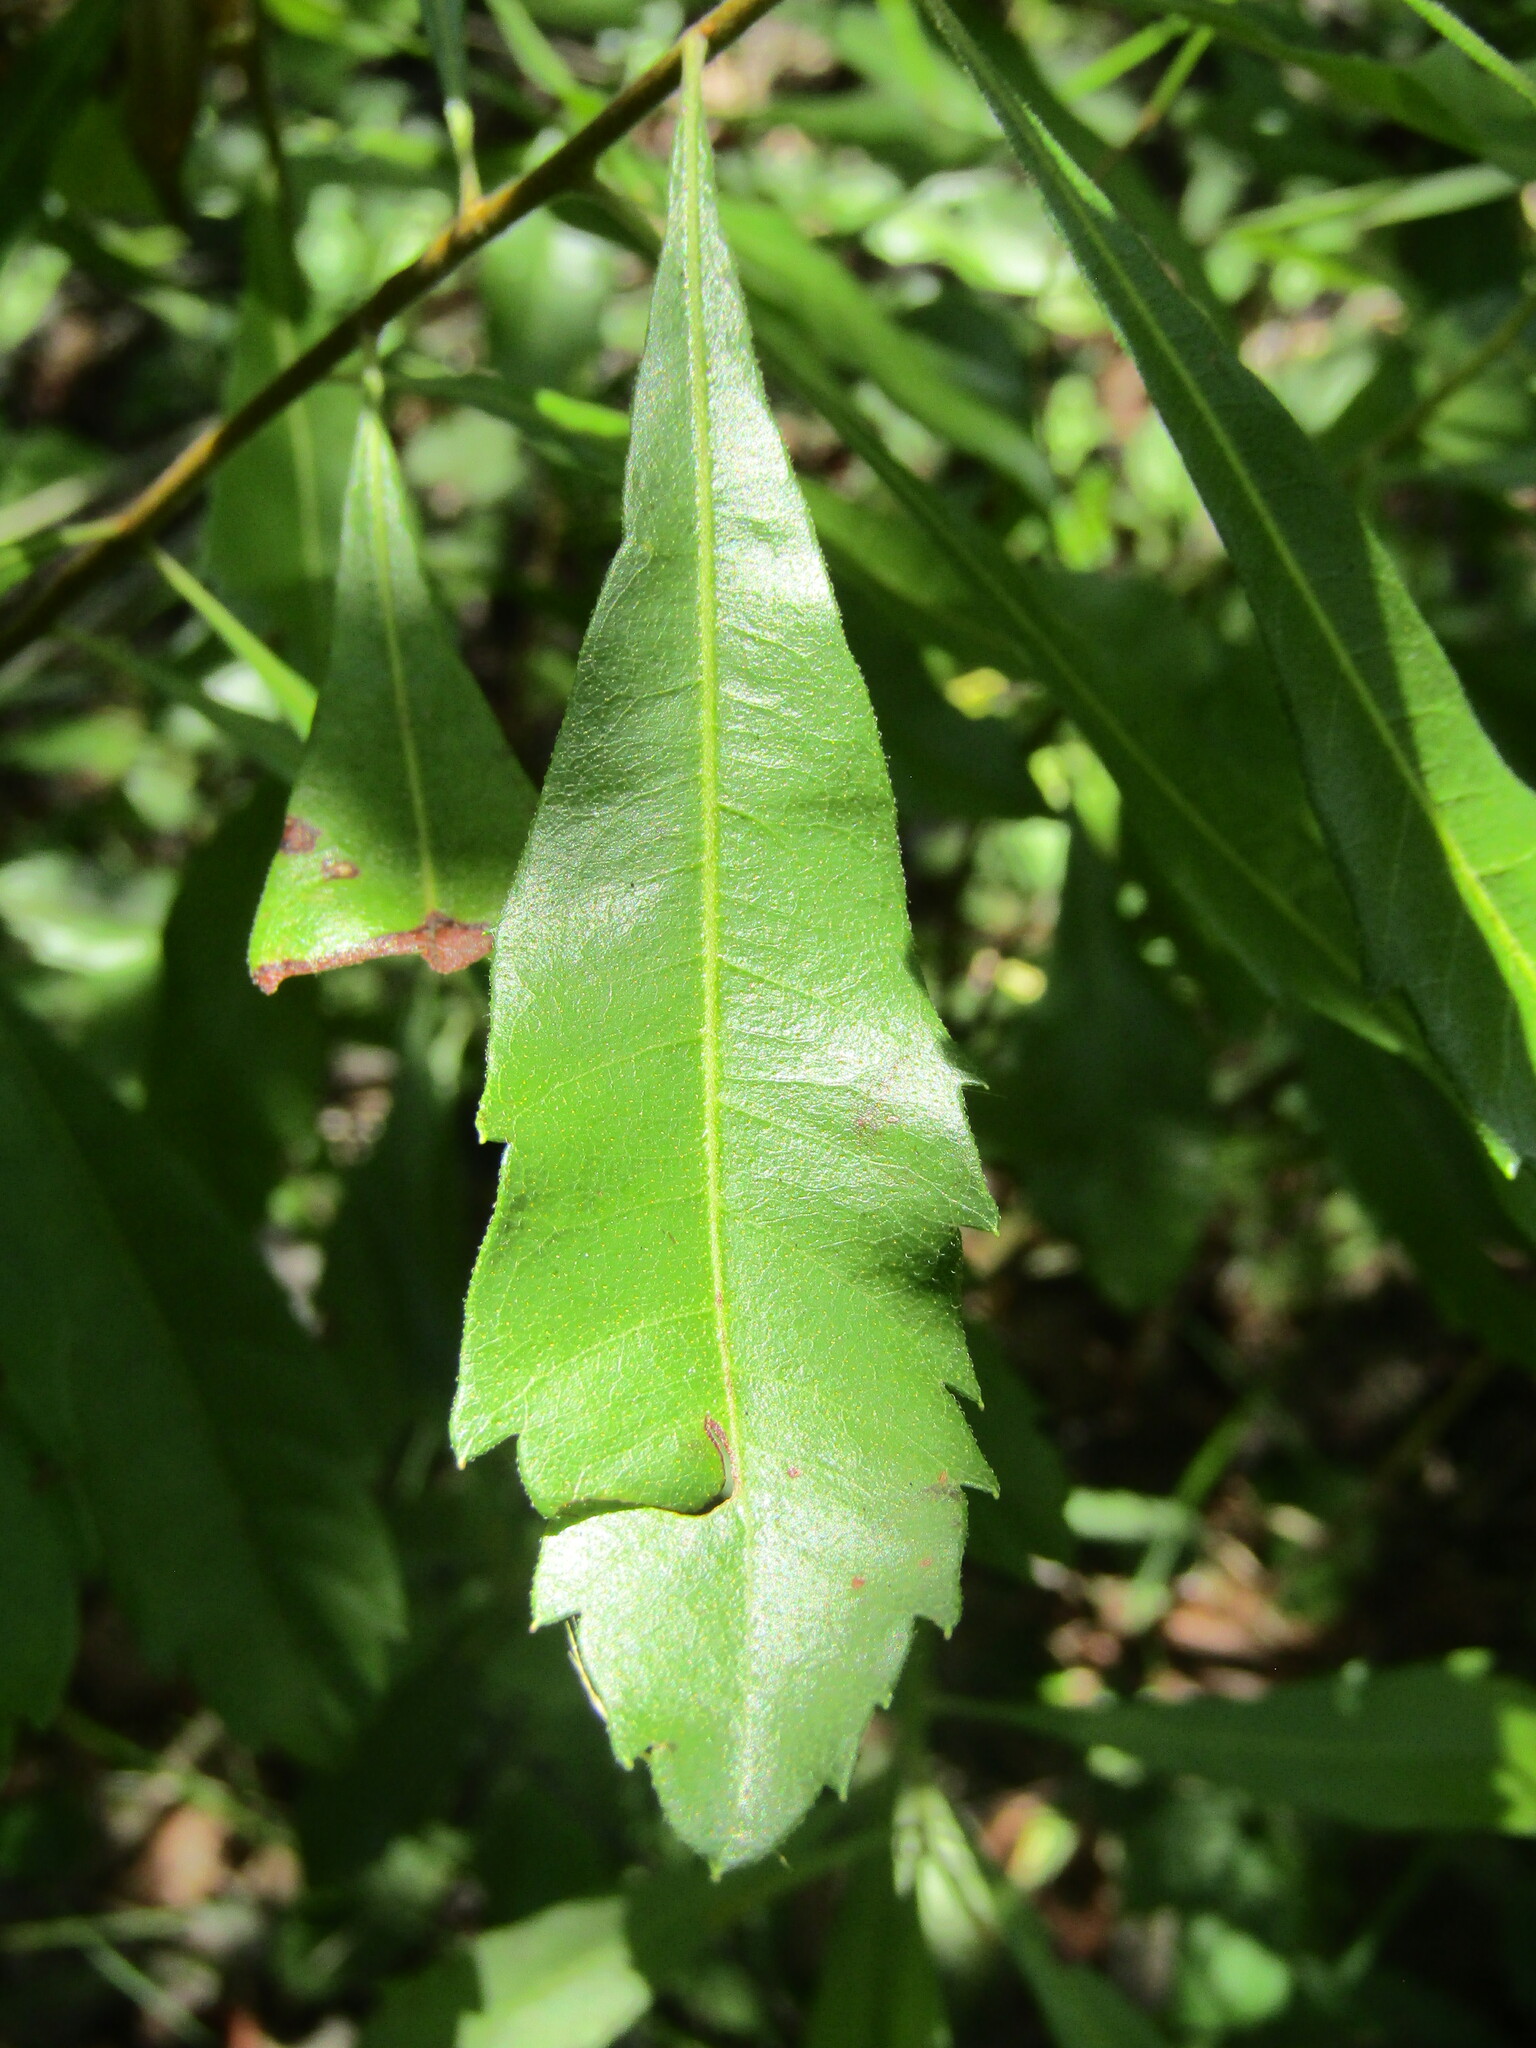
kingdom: Plantae
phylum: Tracheophyta
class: Magnoliopsida
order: Fagales
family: Myricaceae
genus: Morella
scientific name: Morella cerifera
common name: Wax myrtle
